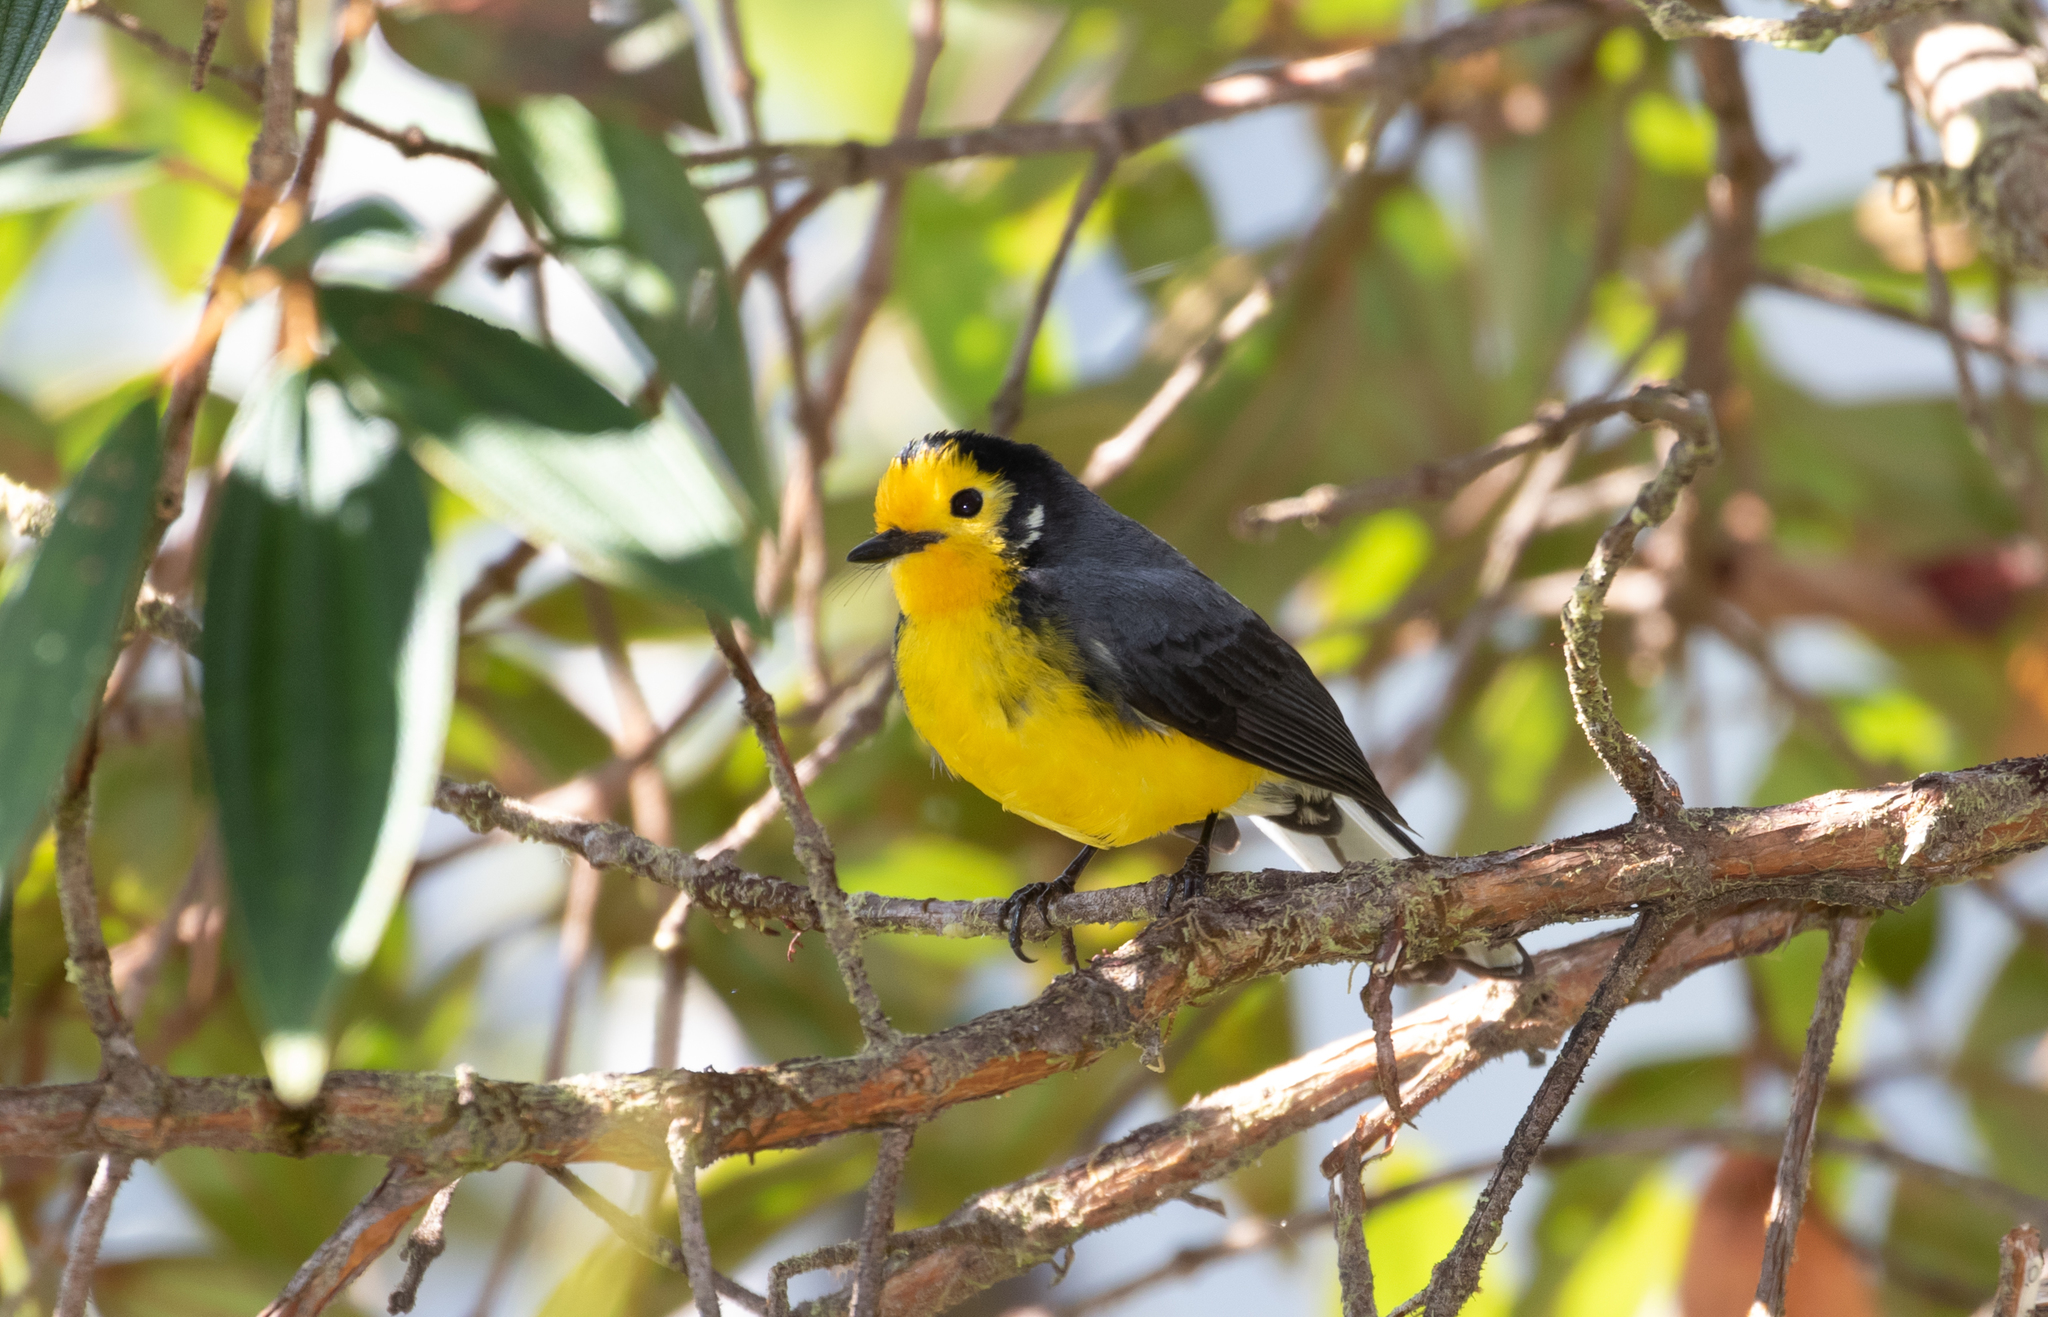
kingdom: Animalia
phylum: Chordata
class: Aves
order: Passeriformes
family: Parulidae
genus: Myioborus
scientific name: Myioborus ornatus
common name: Golden-fronted whitestart
